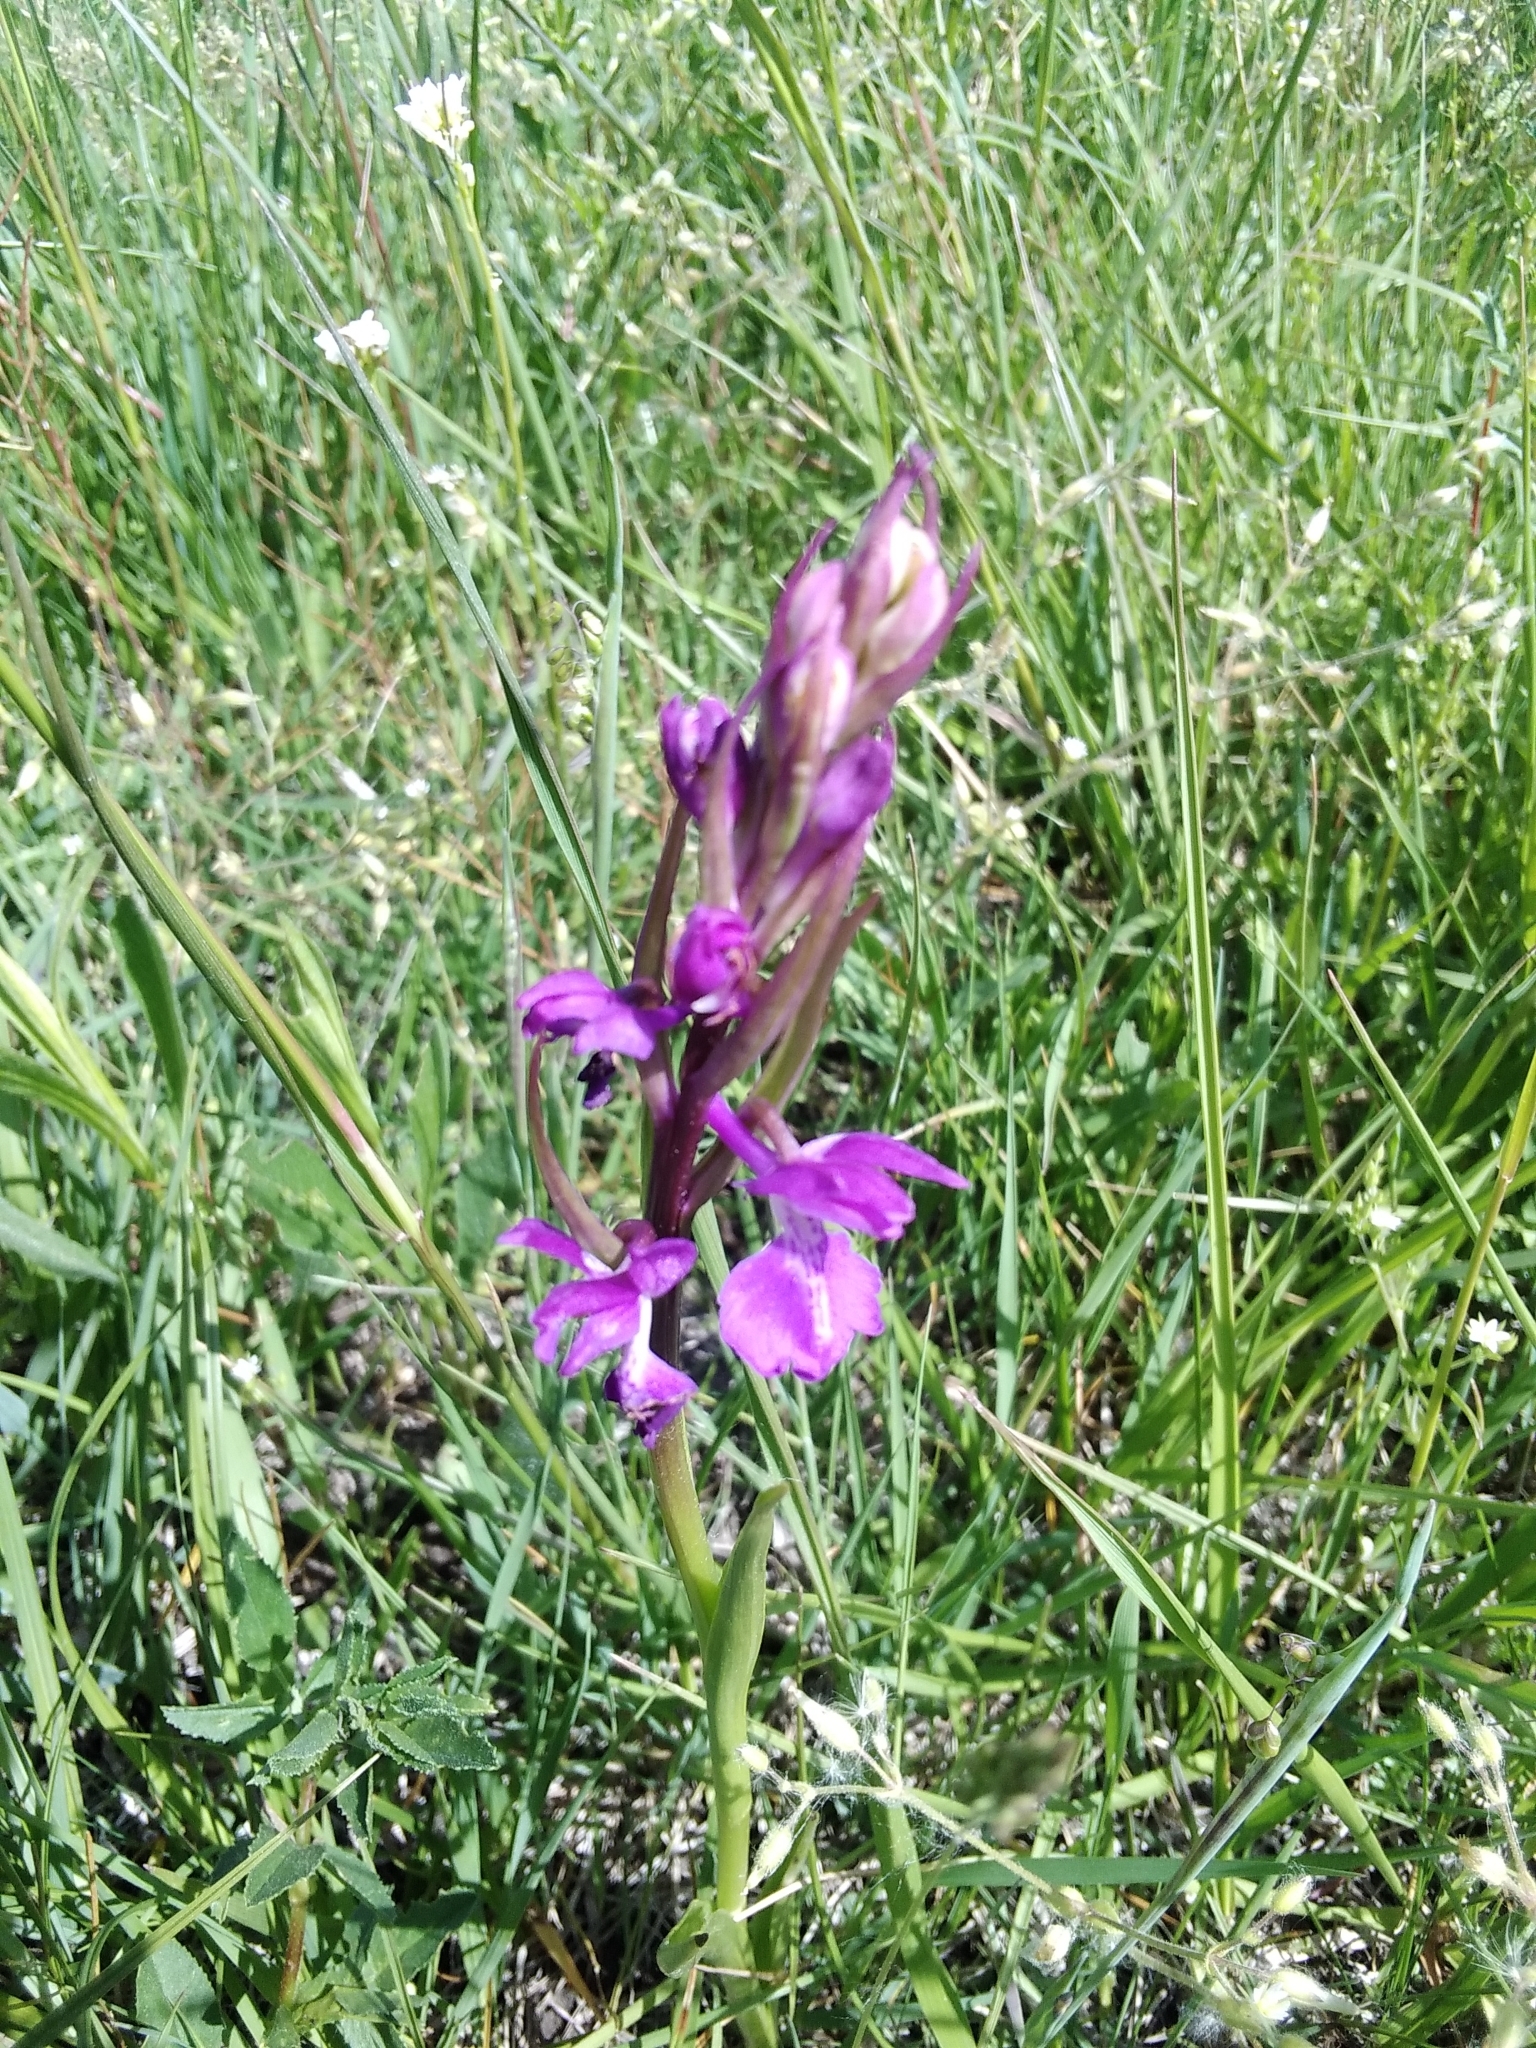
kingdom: Plantae
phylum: Tracheophyta
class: Liliopsida
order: Asparagales
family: Orchidaceae
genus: Anacamptis
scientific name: Anacamptis palustris
